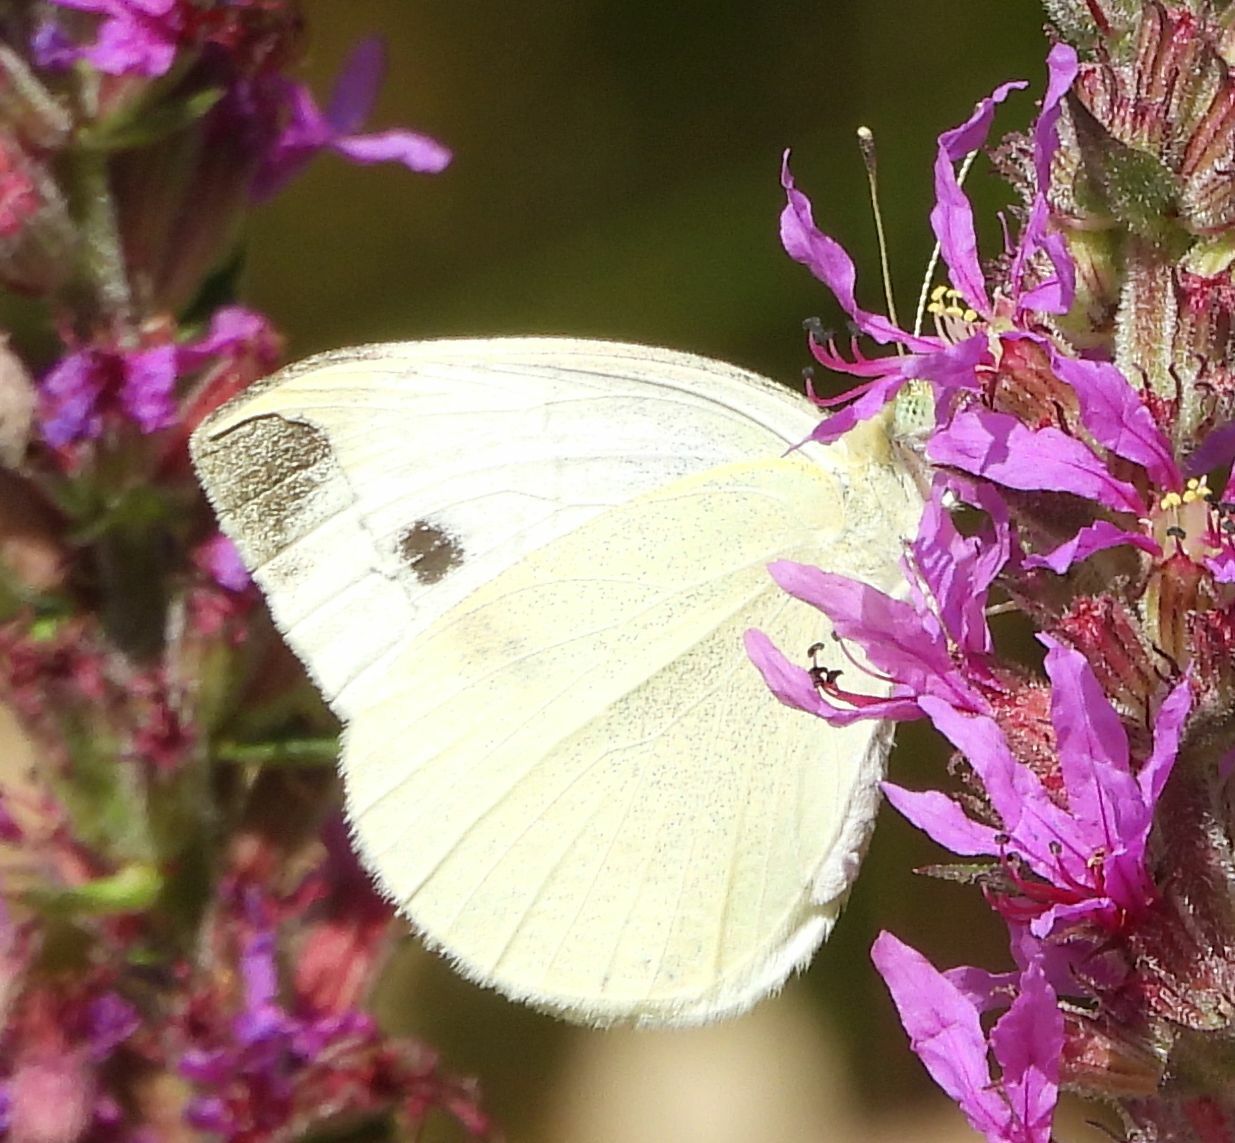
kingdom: Animalia
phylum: Arthropoda
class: Insecta
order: Lepidoptera
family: Pieridae
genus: Pieris
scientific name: Pieris rapae
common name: Small white
